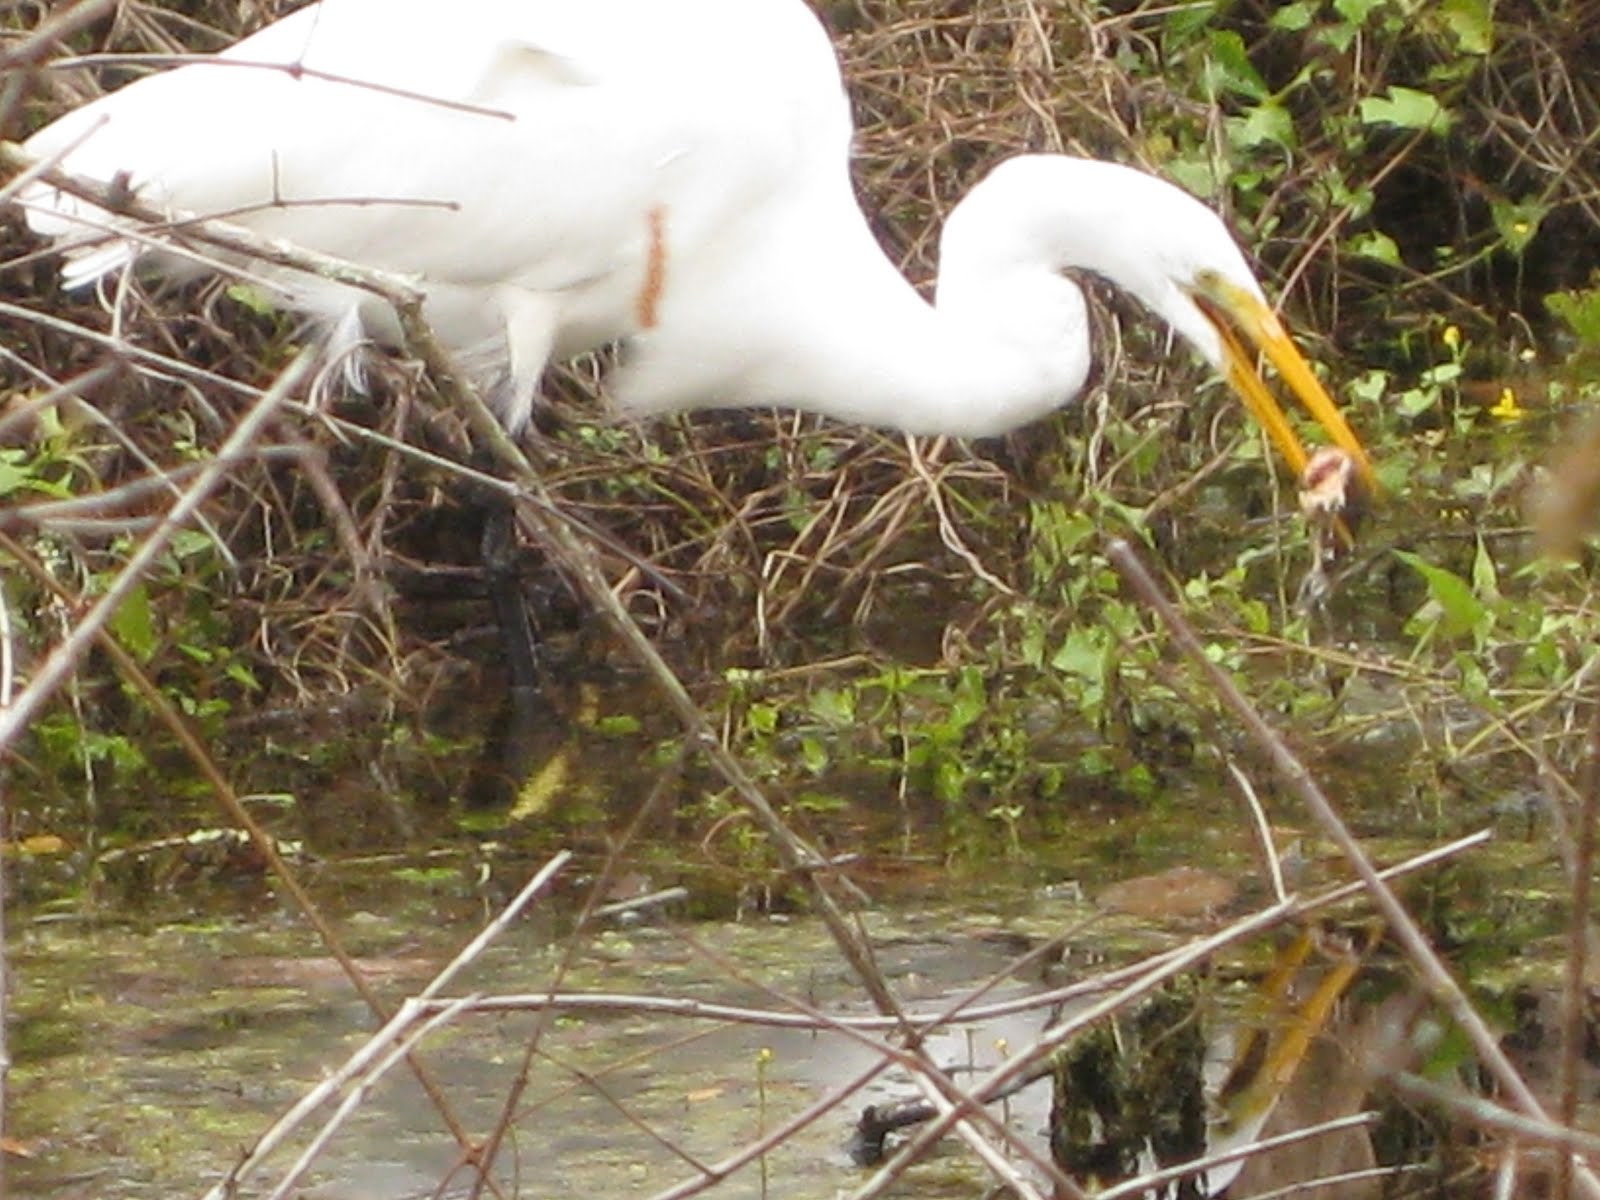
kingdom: Animalia
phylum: Chordata
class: Aves
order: Pelecaniformes
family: Ardeidae
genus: Ardea
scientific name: Ardea alba
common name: Great egret
